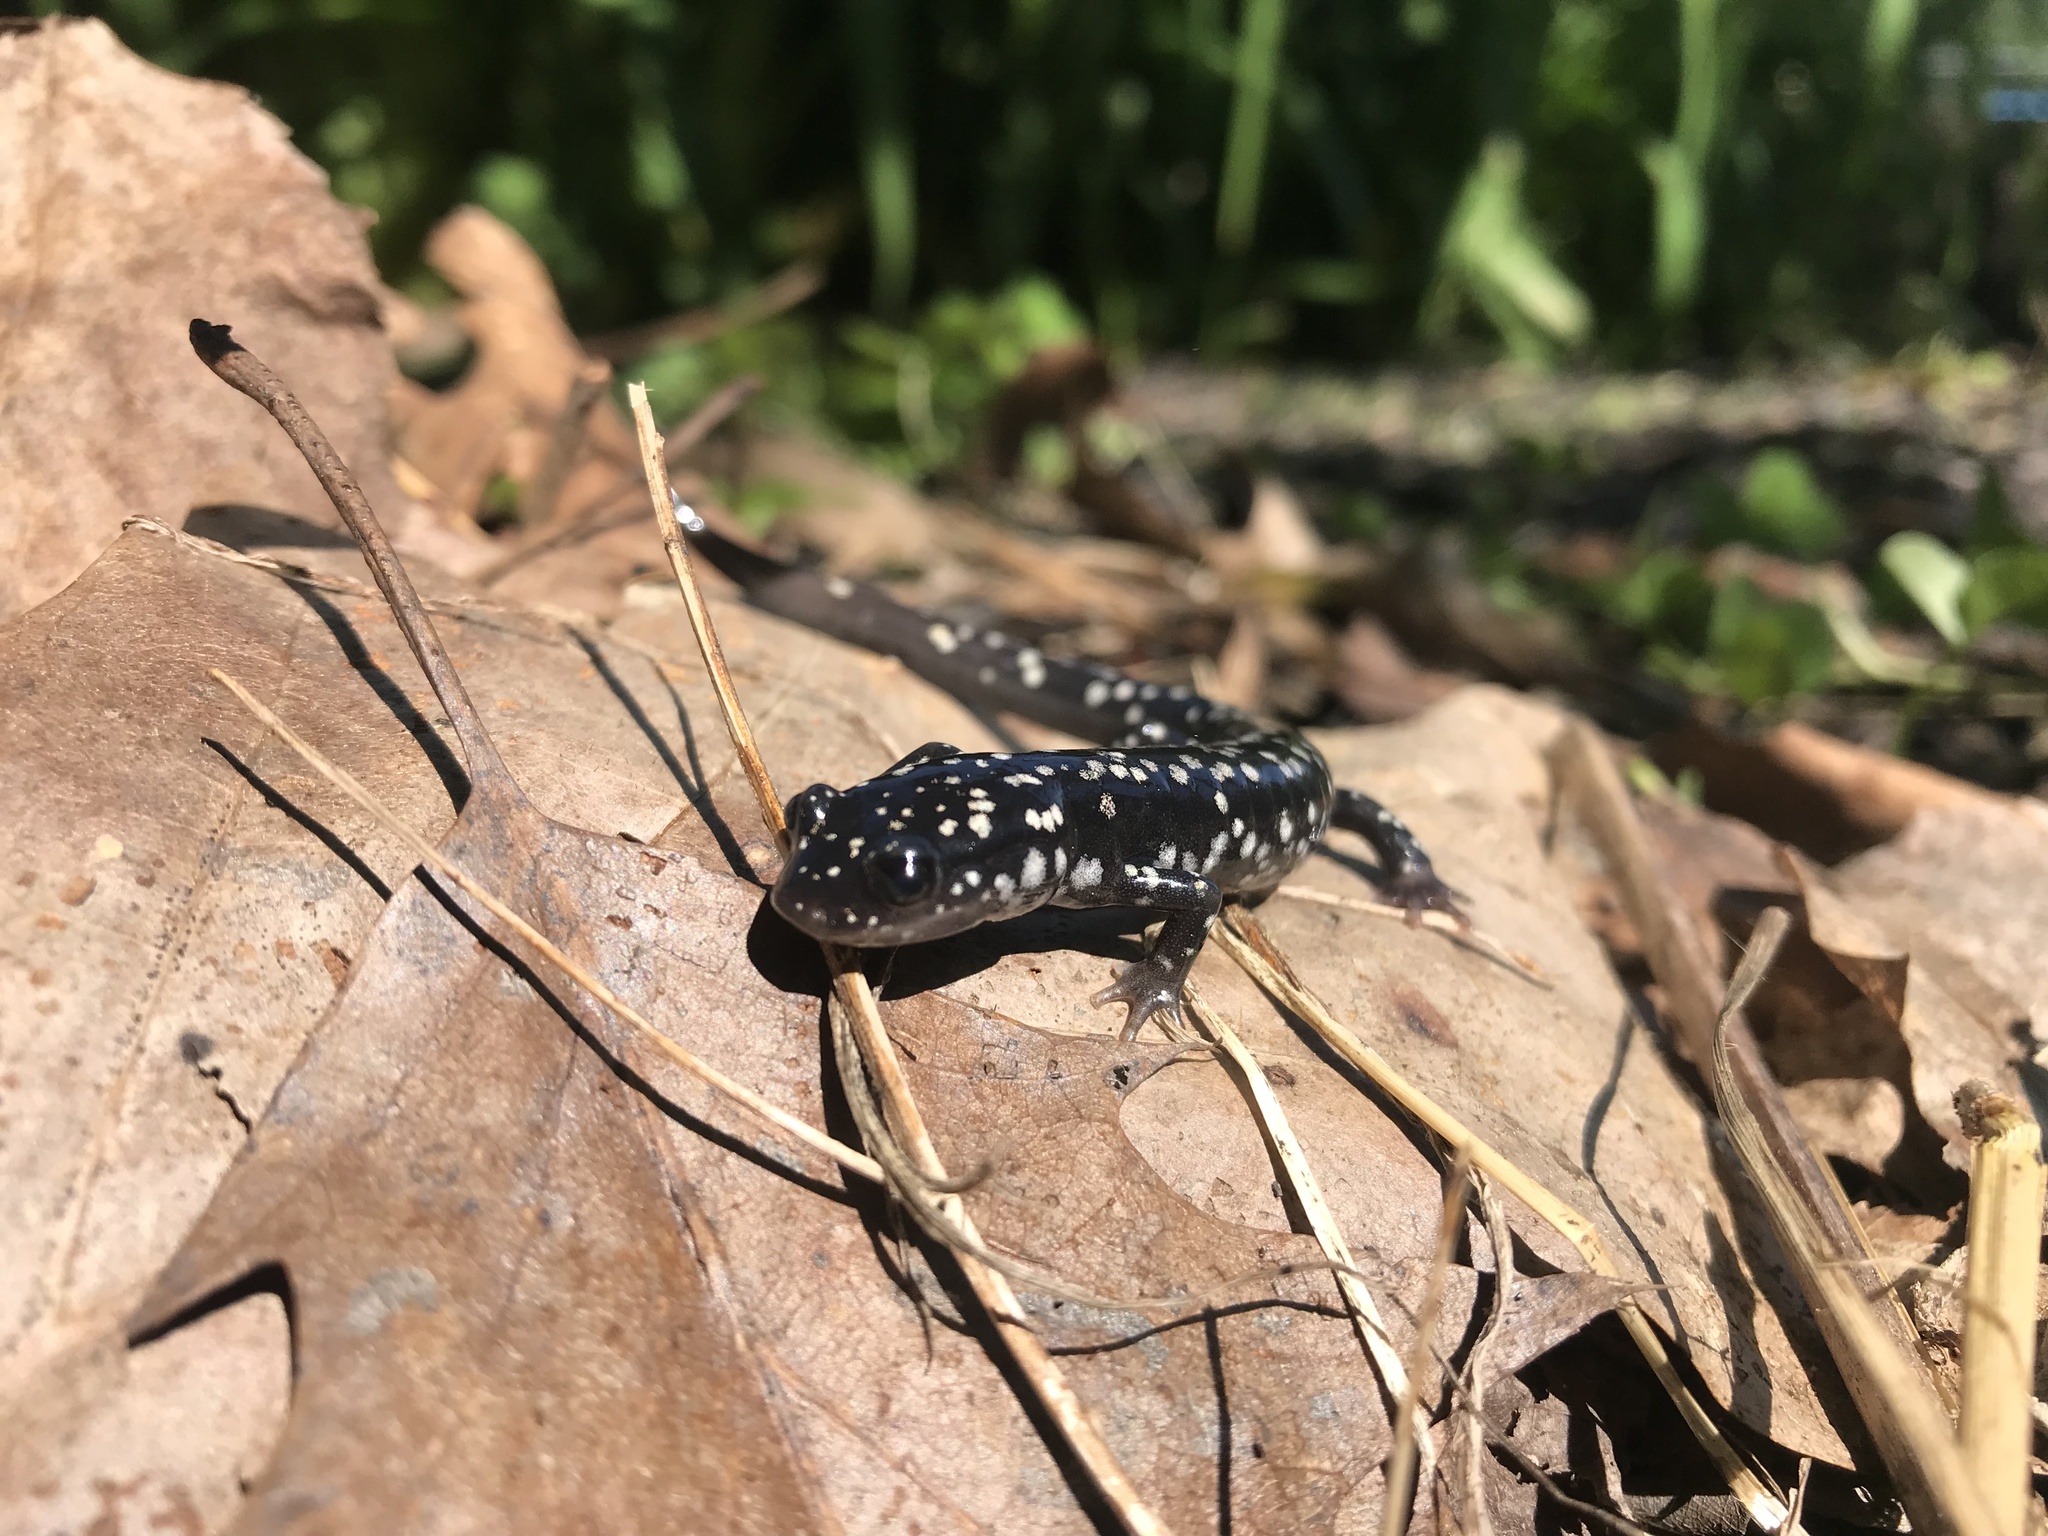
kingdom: Animalia
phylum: Chordata
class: Amphibia
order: Caudata
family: Plethodontidae
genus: Plethodon
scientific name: Plethodon glutinosus
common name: Northern slimy salamander
